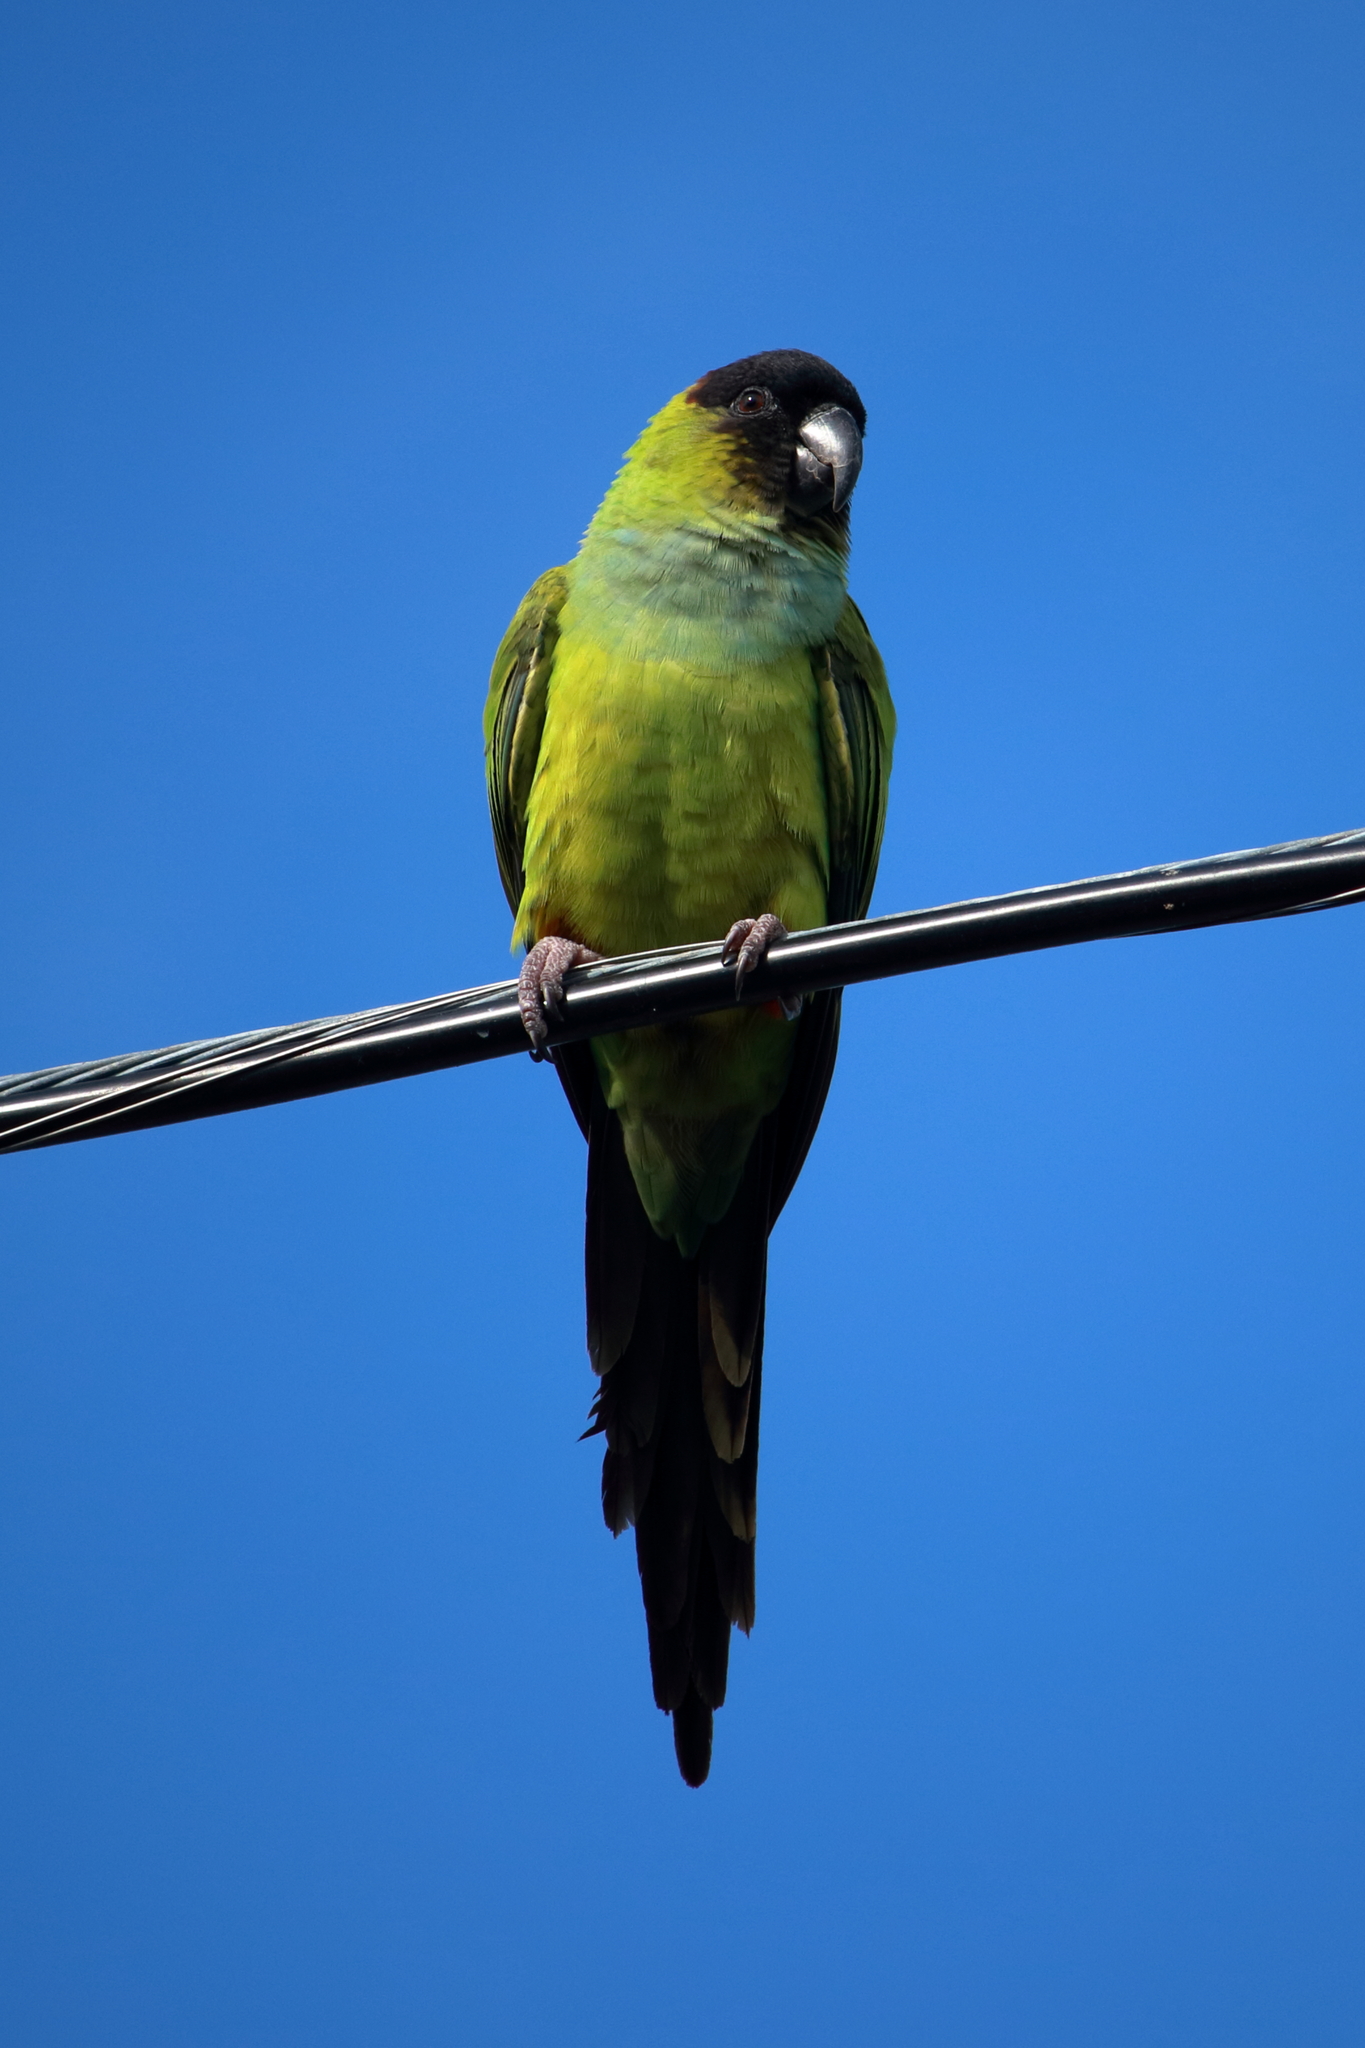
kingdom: Animalia
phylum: Chordata
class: Aves
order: Psittaciformes
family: Psittacidae
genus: Nandayus
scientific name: Nandayus nenday
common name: Nanday parakeet
